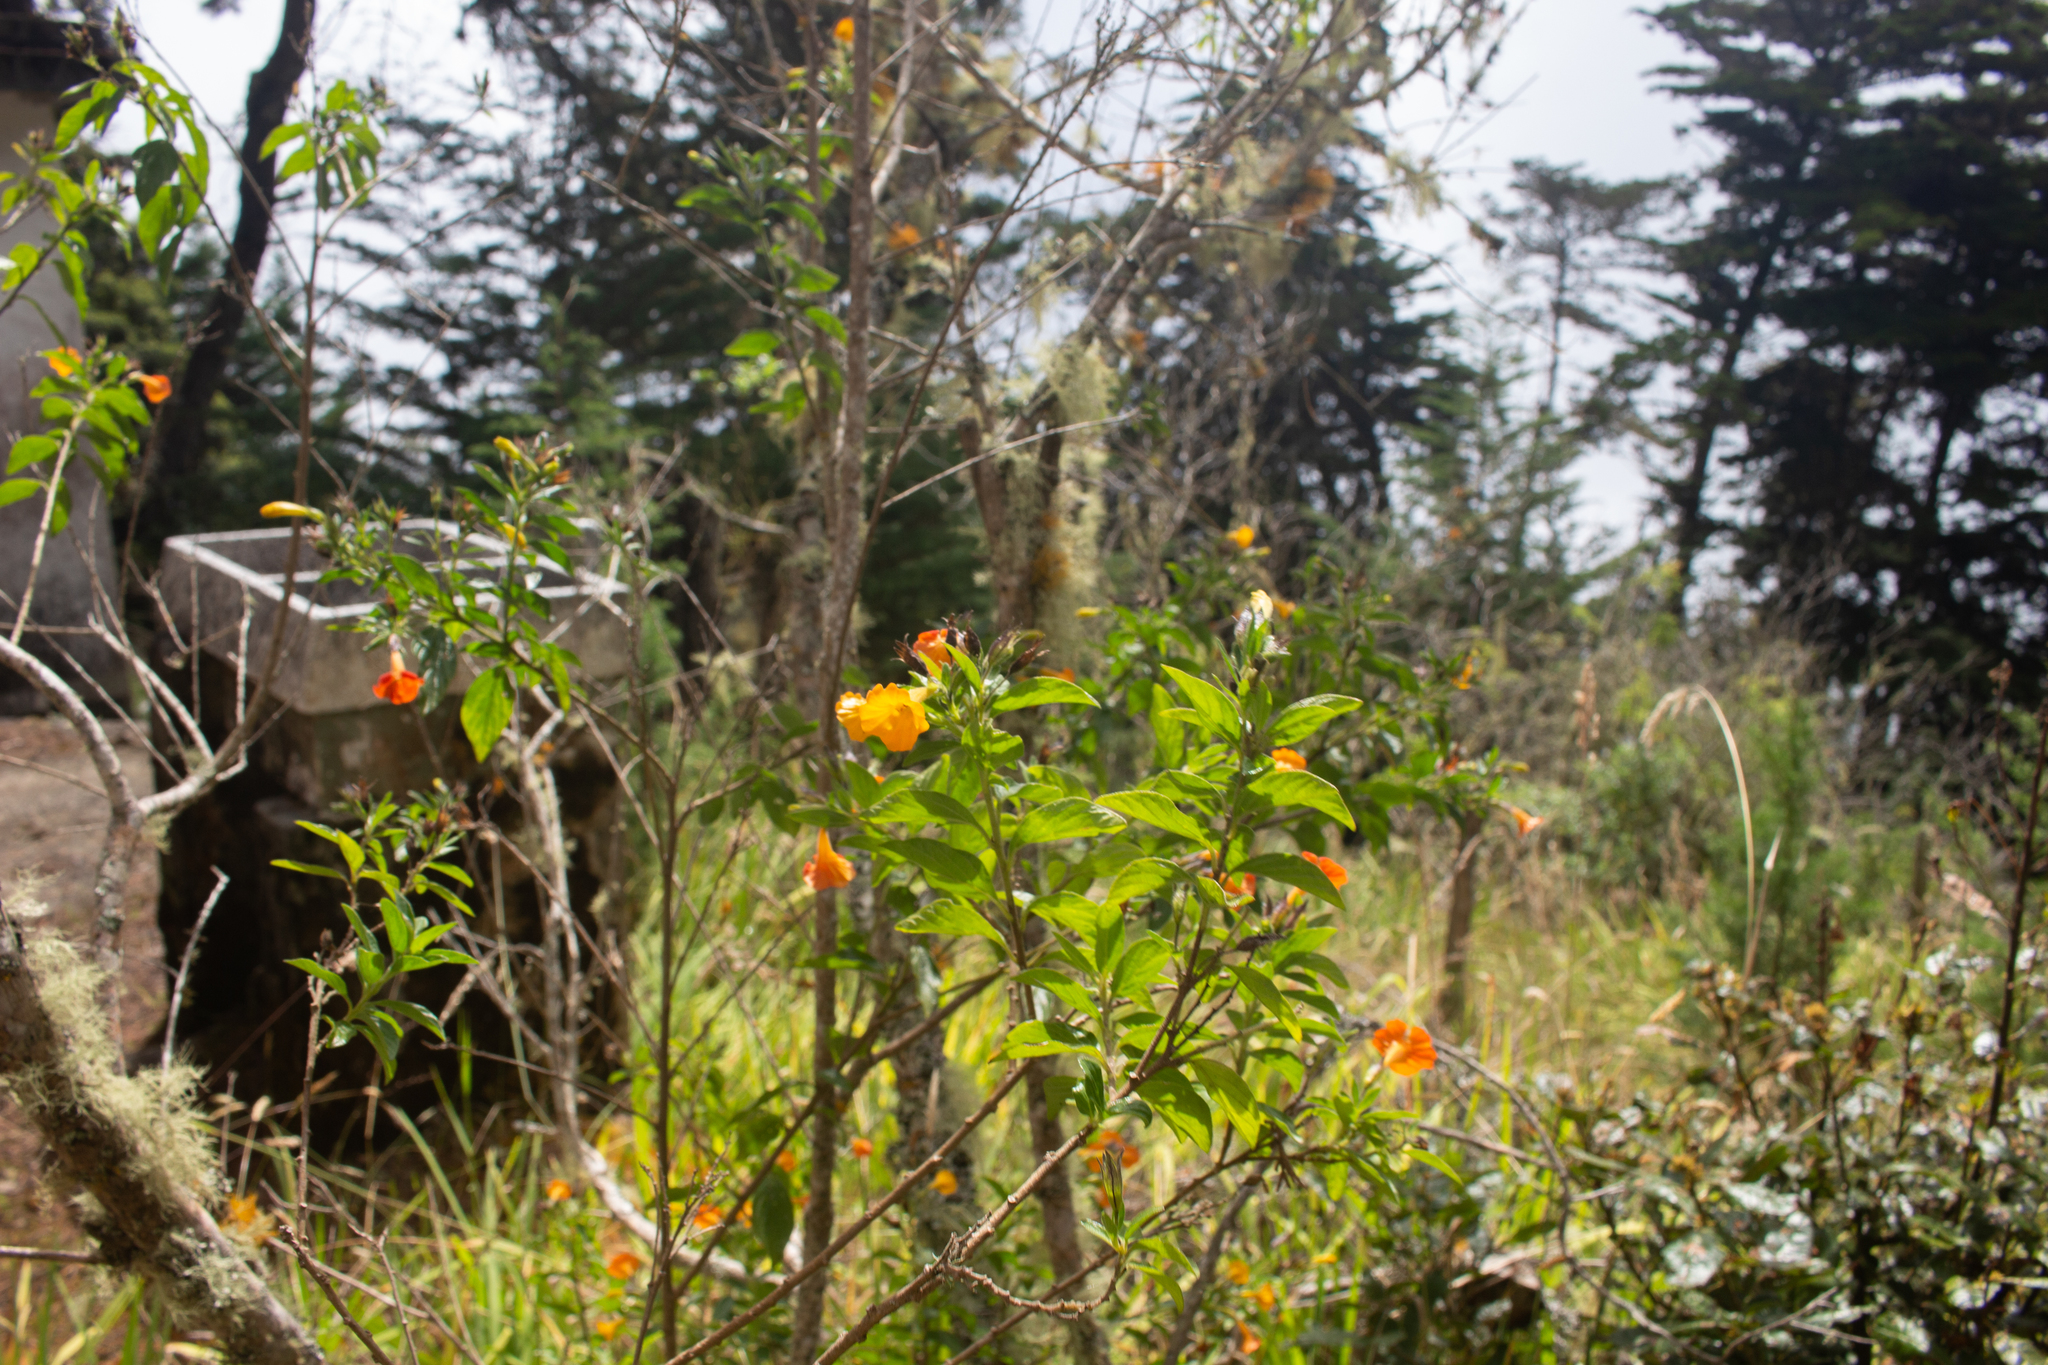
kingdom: Plantae
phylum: Tracheophyta
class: Magnoliopsida
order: Solanales
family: Solanaceae
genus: Streptosolen
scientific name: Streptosolen jamesonii
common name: Marmalade bush
